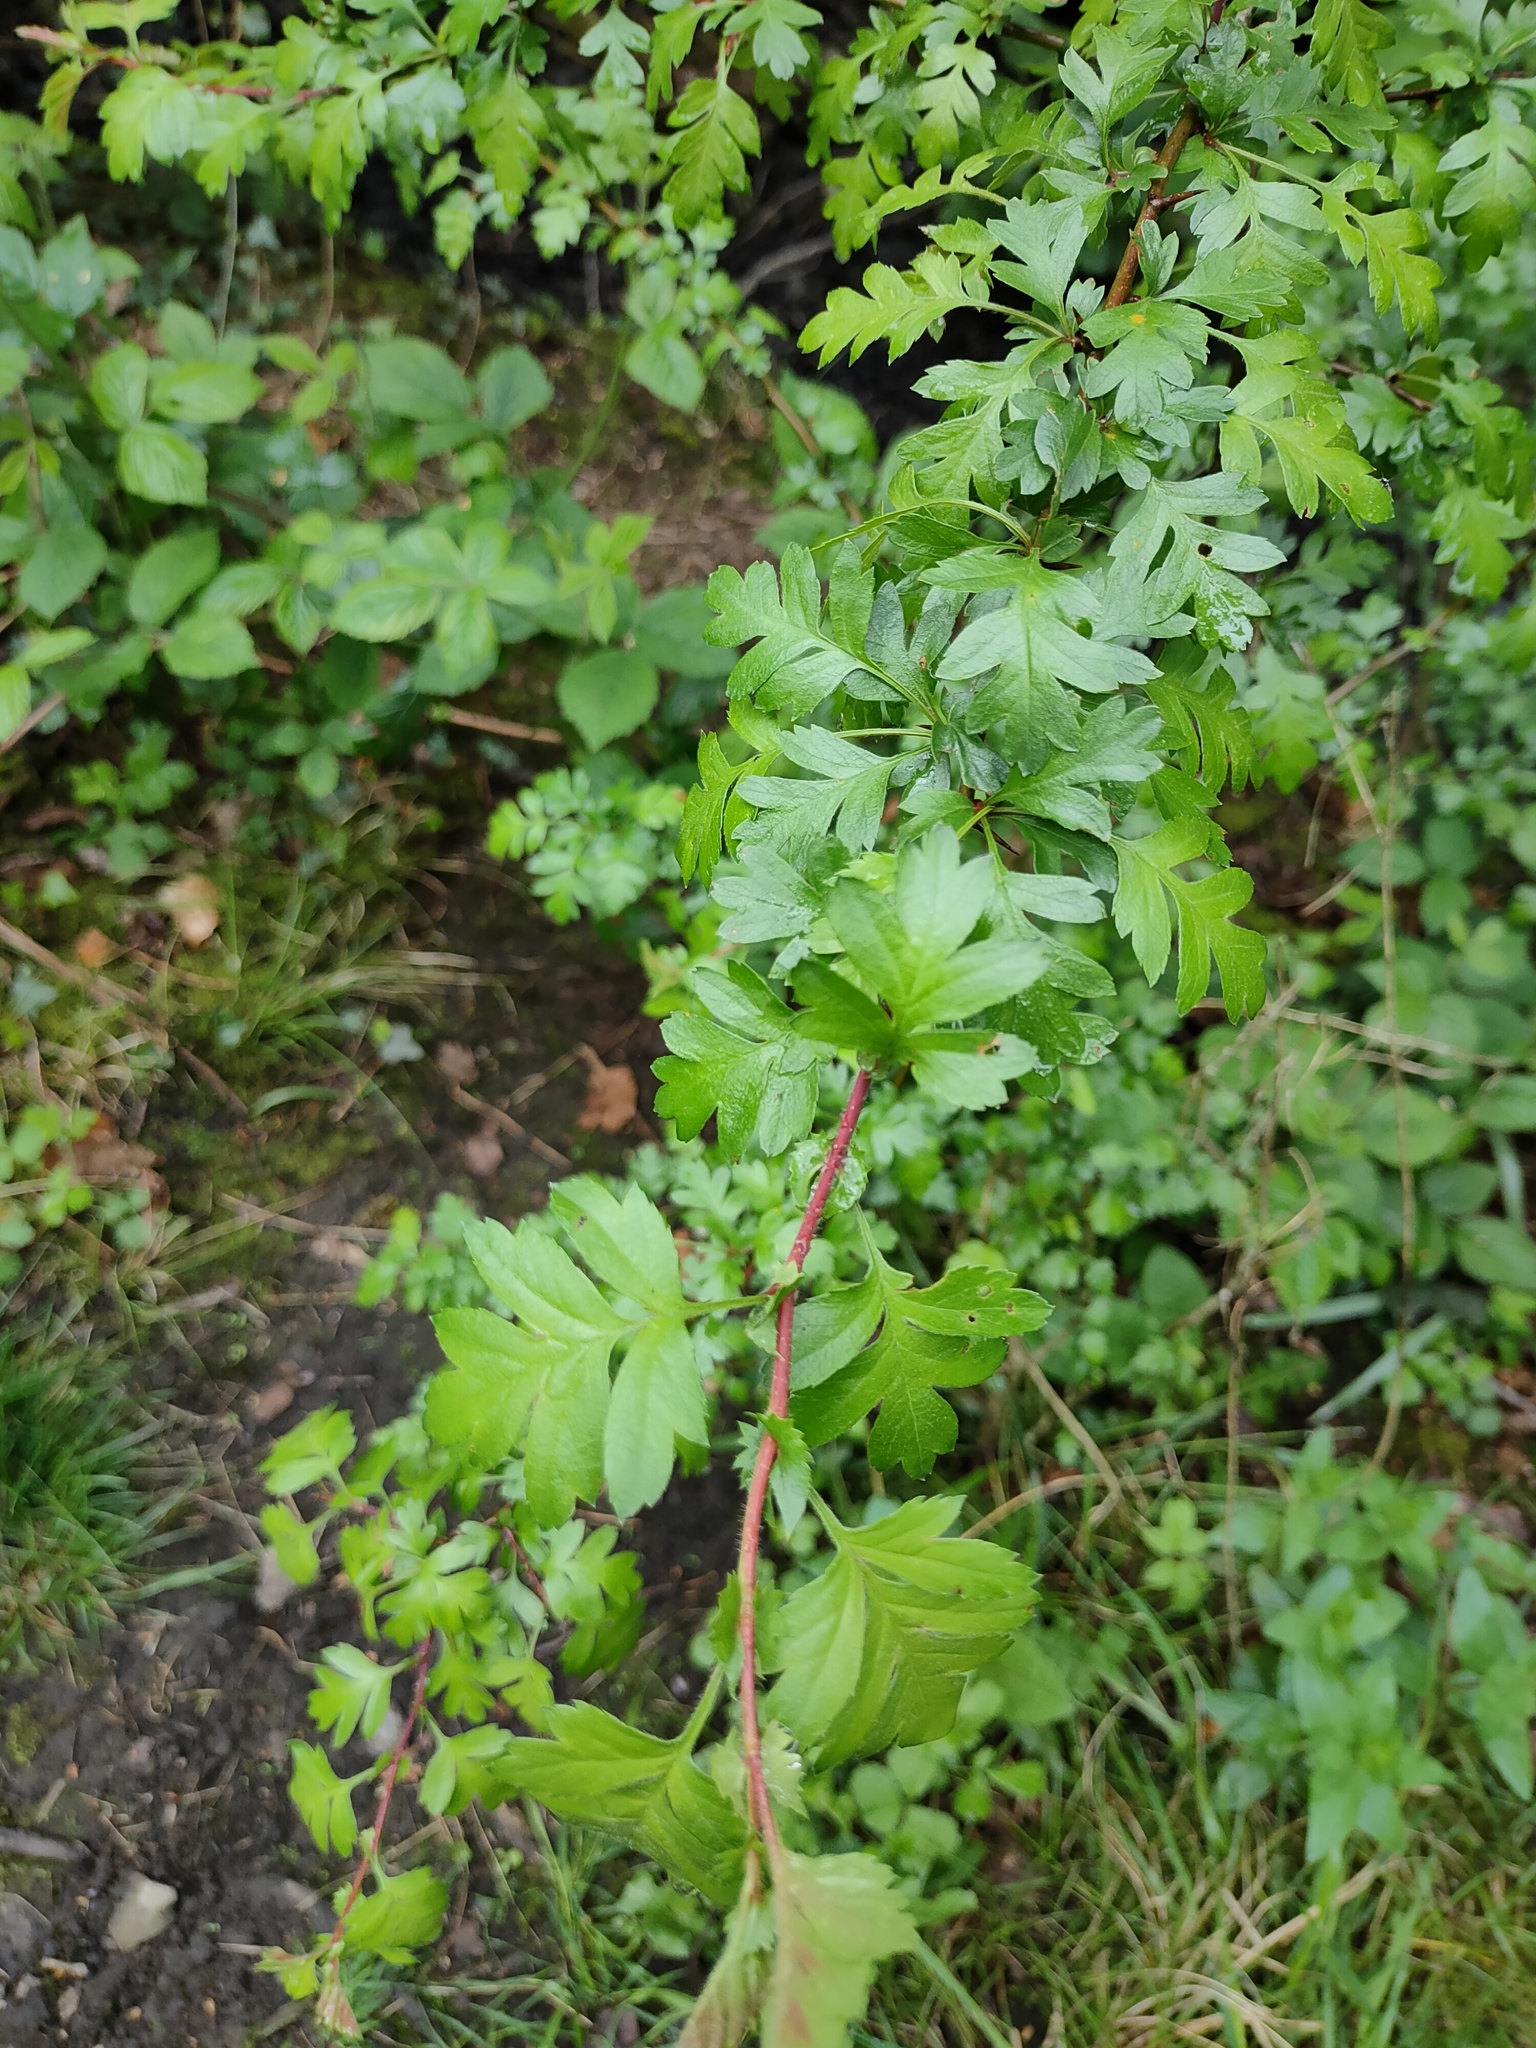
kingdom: Plantae
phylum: Tracheophyta
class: Magnoliopsida
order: Rosales
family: Rosaceae
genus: Crataegus
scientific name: Crataegus monogyna
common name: Hawthorn
